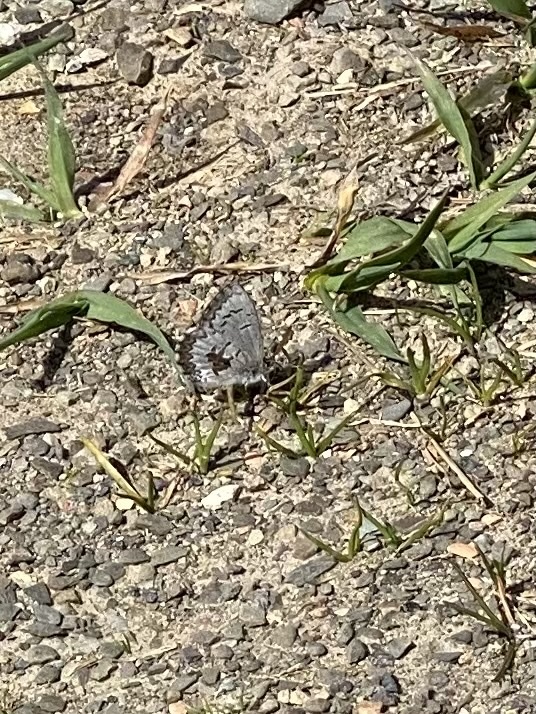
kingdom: Animalia
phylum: Arthropoda
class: Insecta
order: Lepidoptera
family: Lycaenidae
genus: Celastrina
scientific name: Celastrina lucia
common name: Lucia azure
